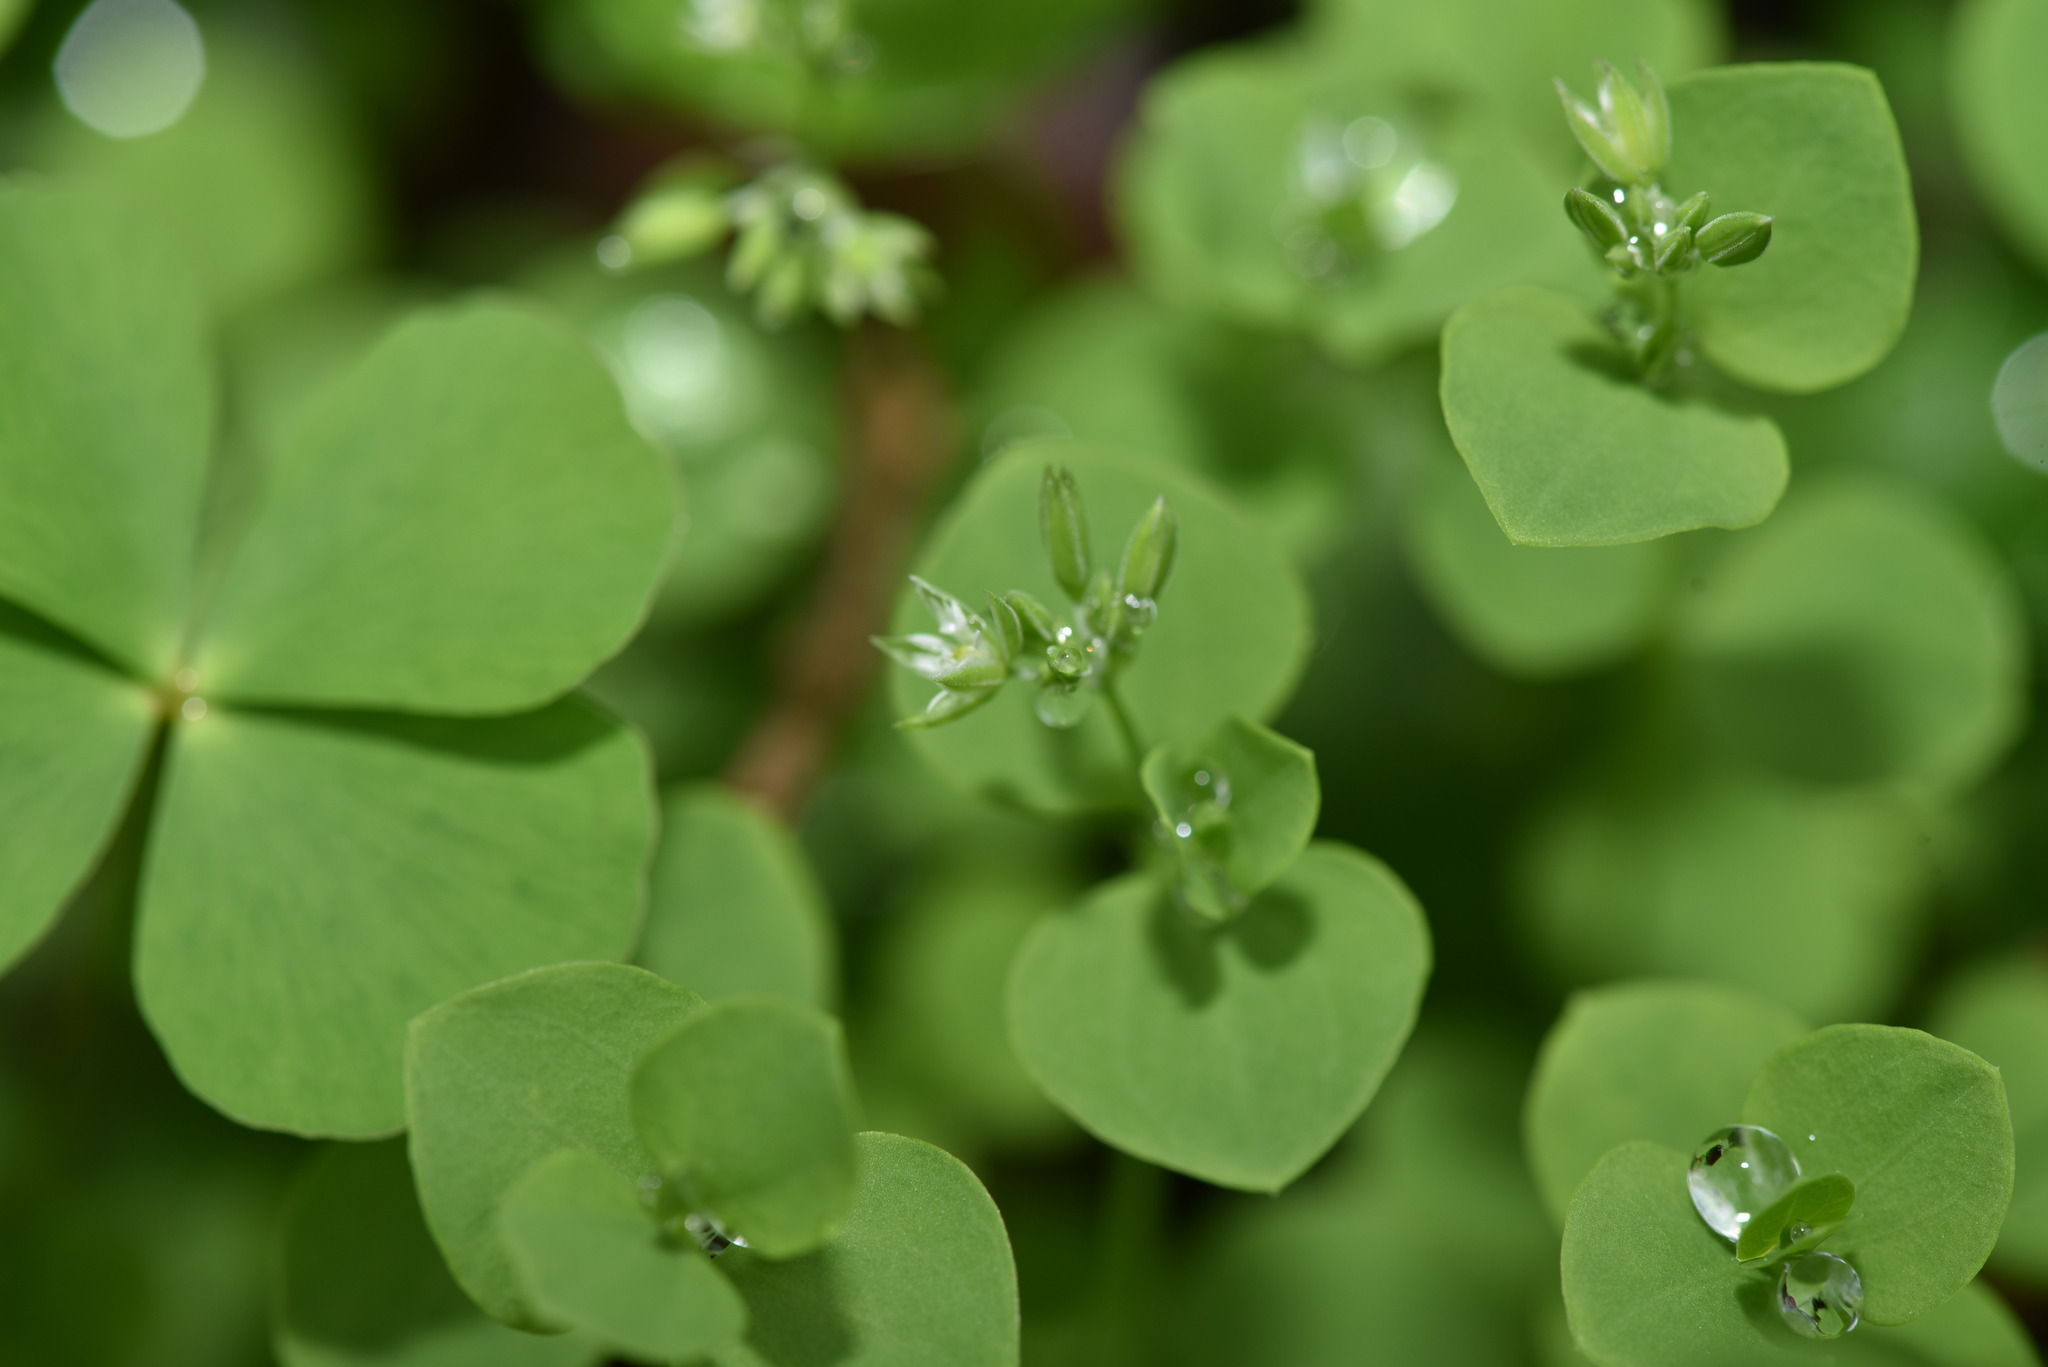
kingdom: Plantae
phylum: Tracheophyta
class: Magnoliopsida
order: Caryophyllales
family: Caryophyllaceae
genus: Drymaria
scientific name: Drymaria cordata
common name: Whitesnow
